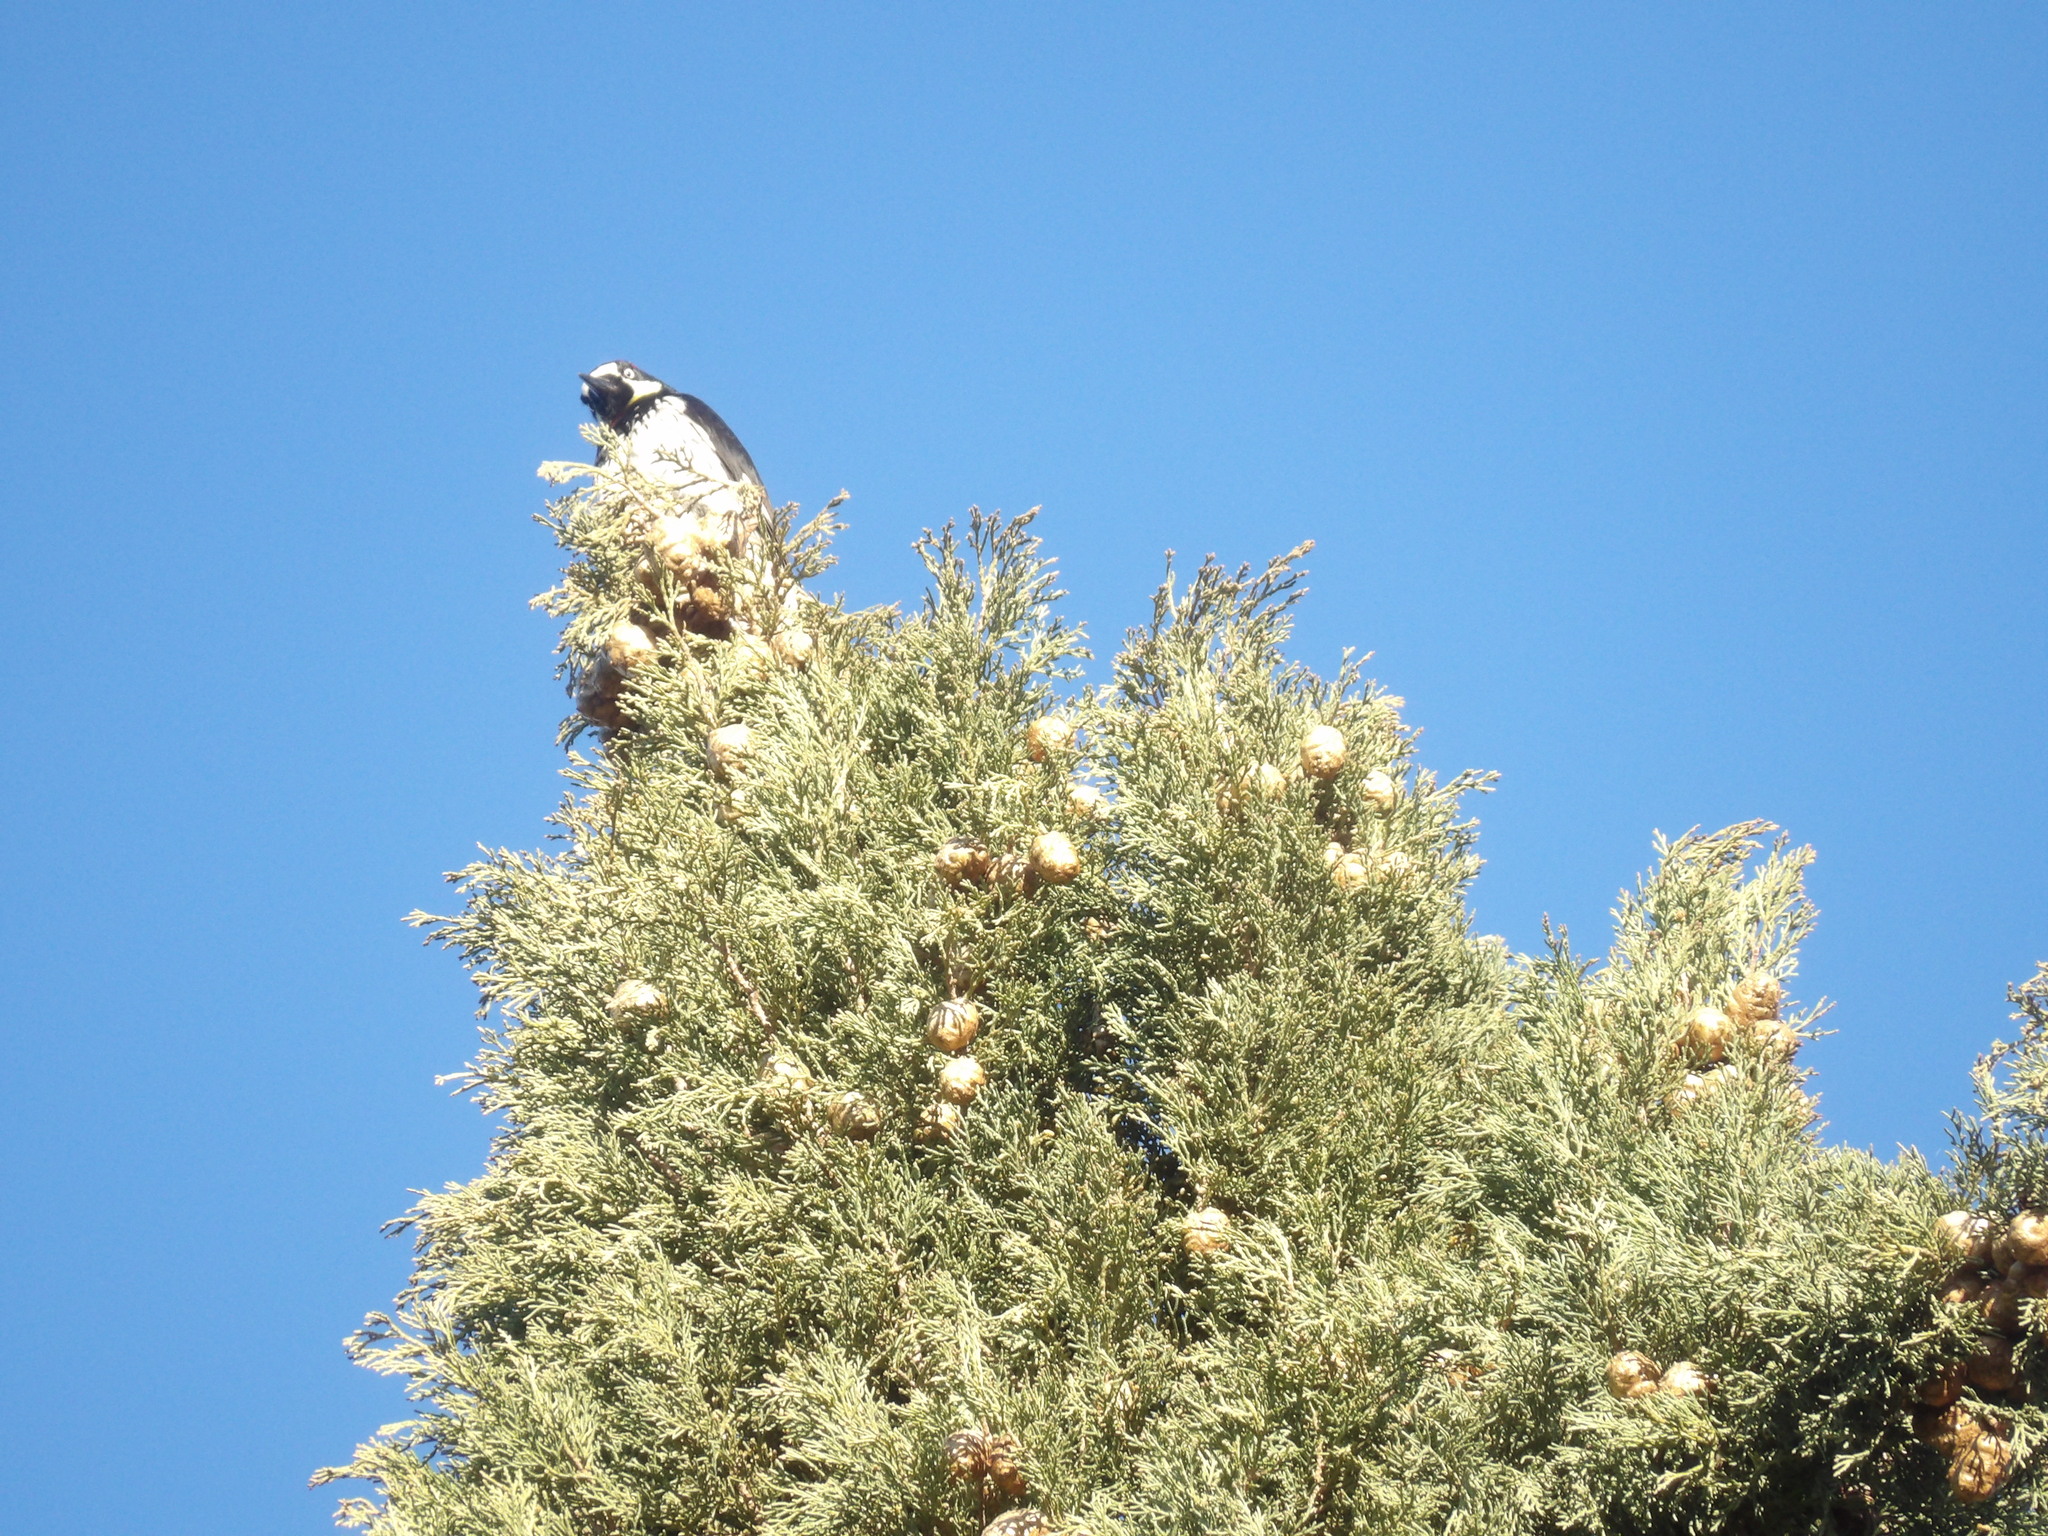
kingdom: Animalia
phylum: Chordata
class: Aves
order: Piciformes
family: Picidae
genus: Melanerpes
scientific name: Melanerpes formicivorus
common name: Acorn woodpecker
